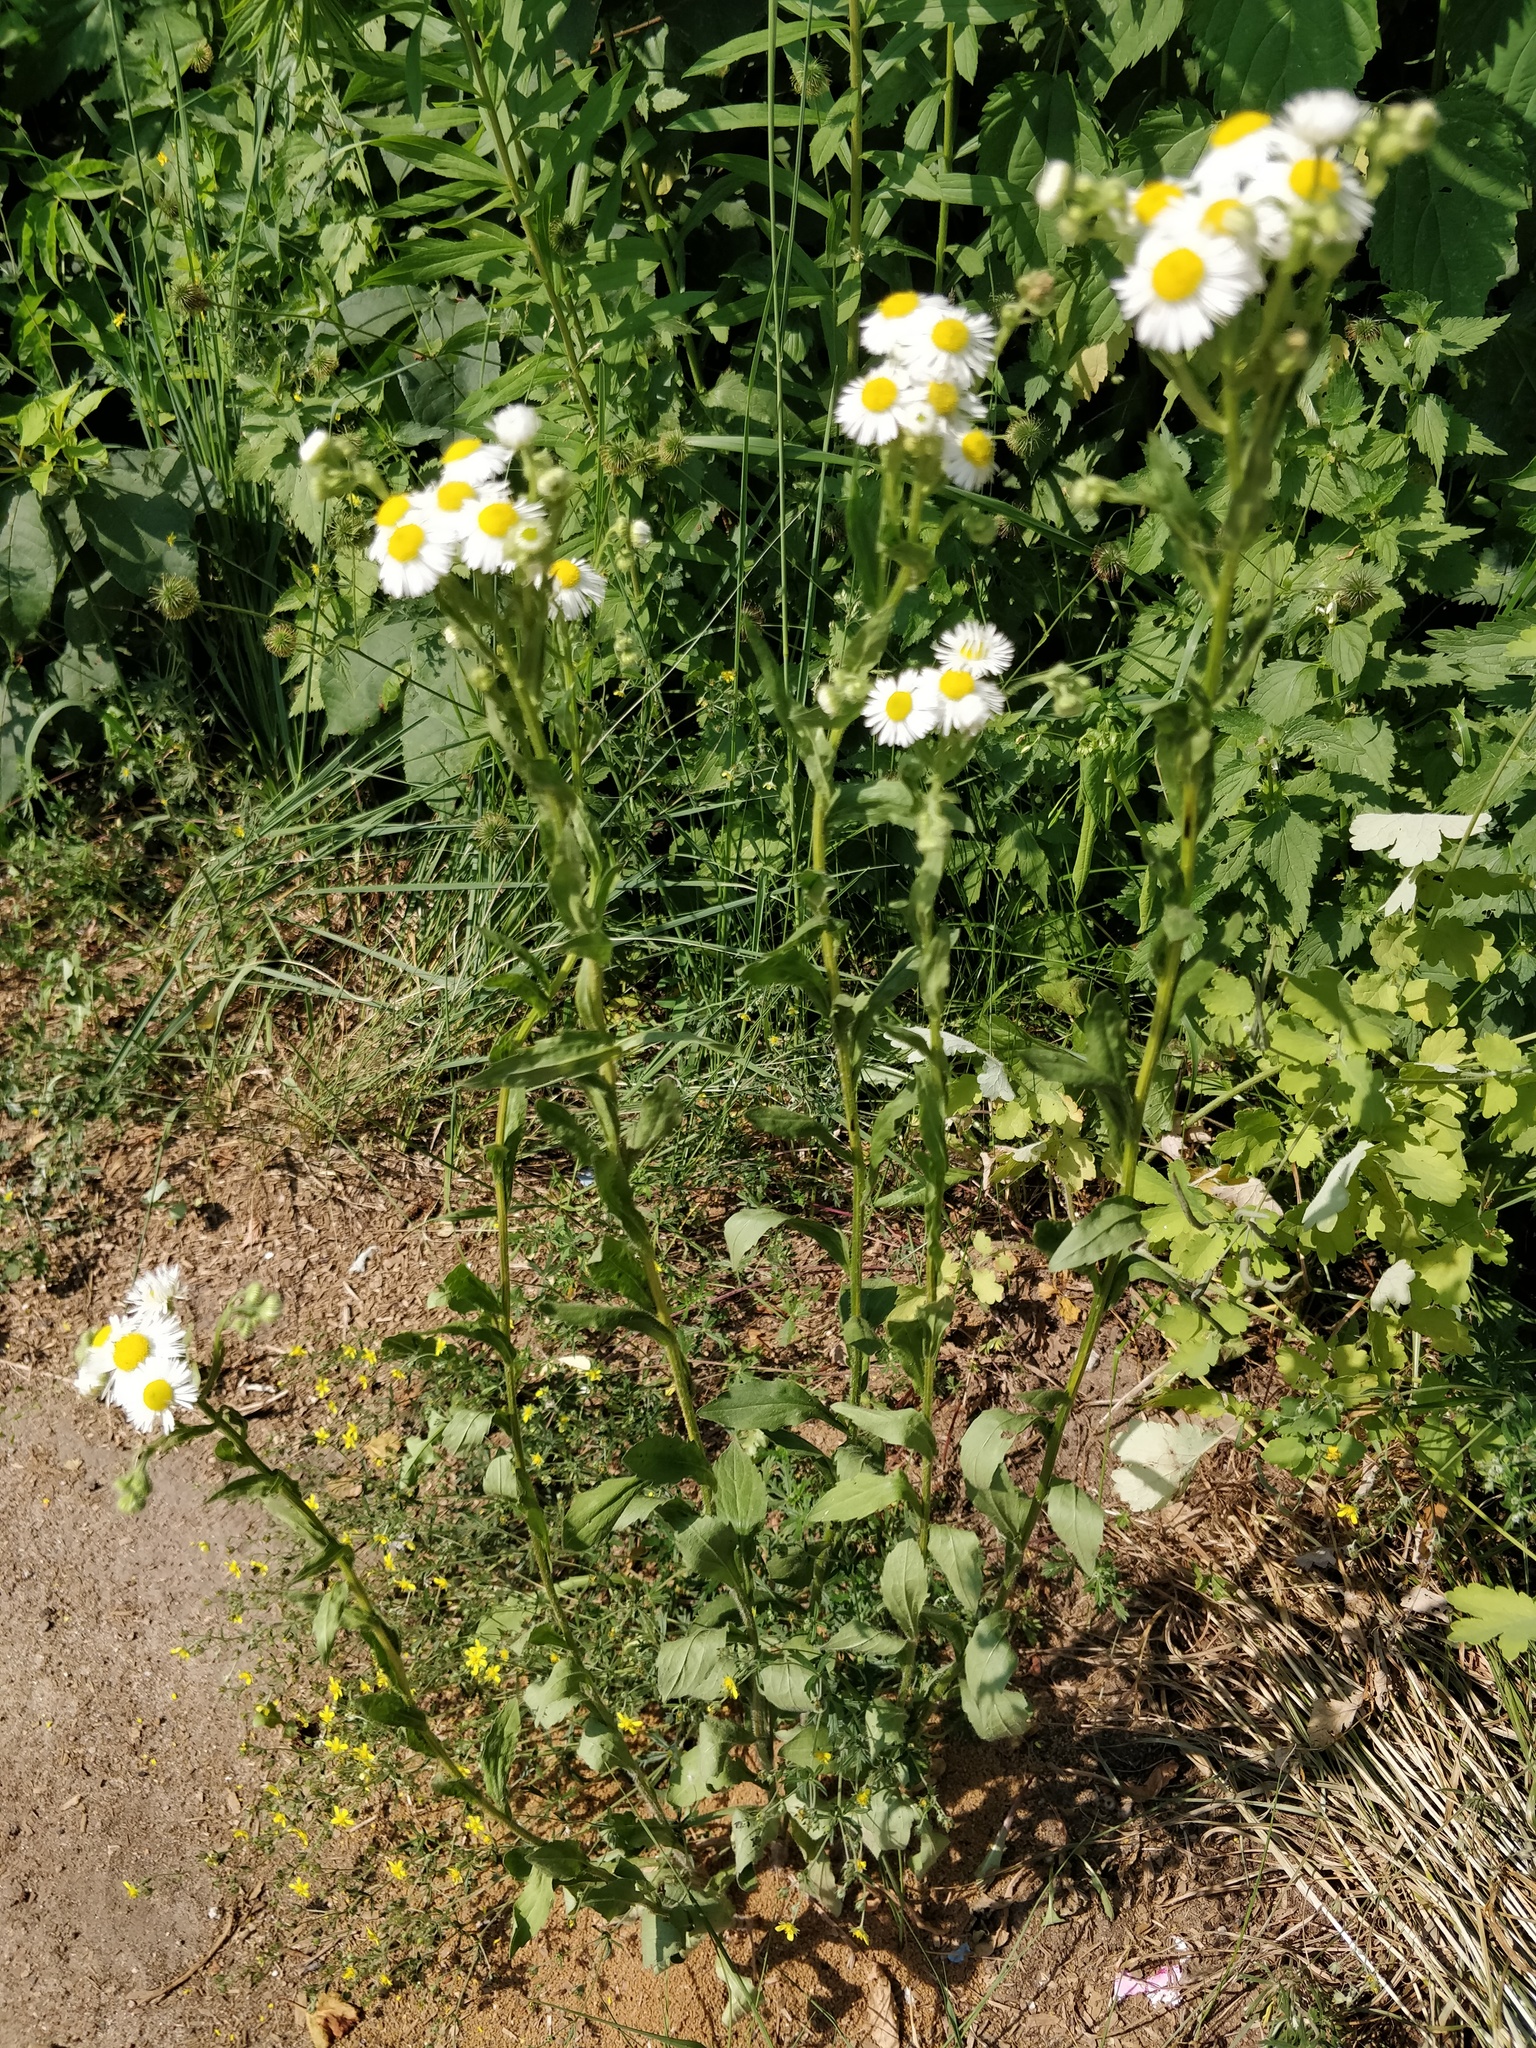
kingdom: Plantae
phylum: Tracheophyta
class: Magnoliopsida
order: Asterales
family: Asteraceae
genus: Erigeron
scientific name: Erigeron annuus
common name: Tall fleabane
